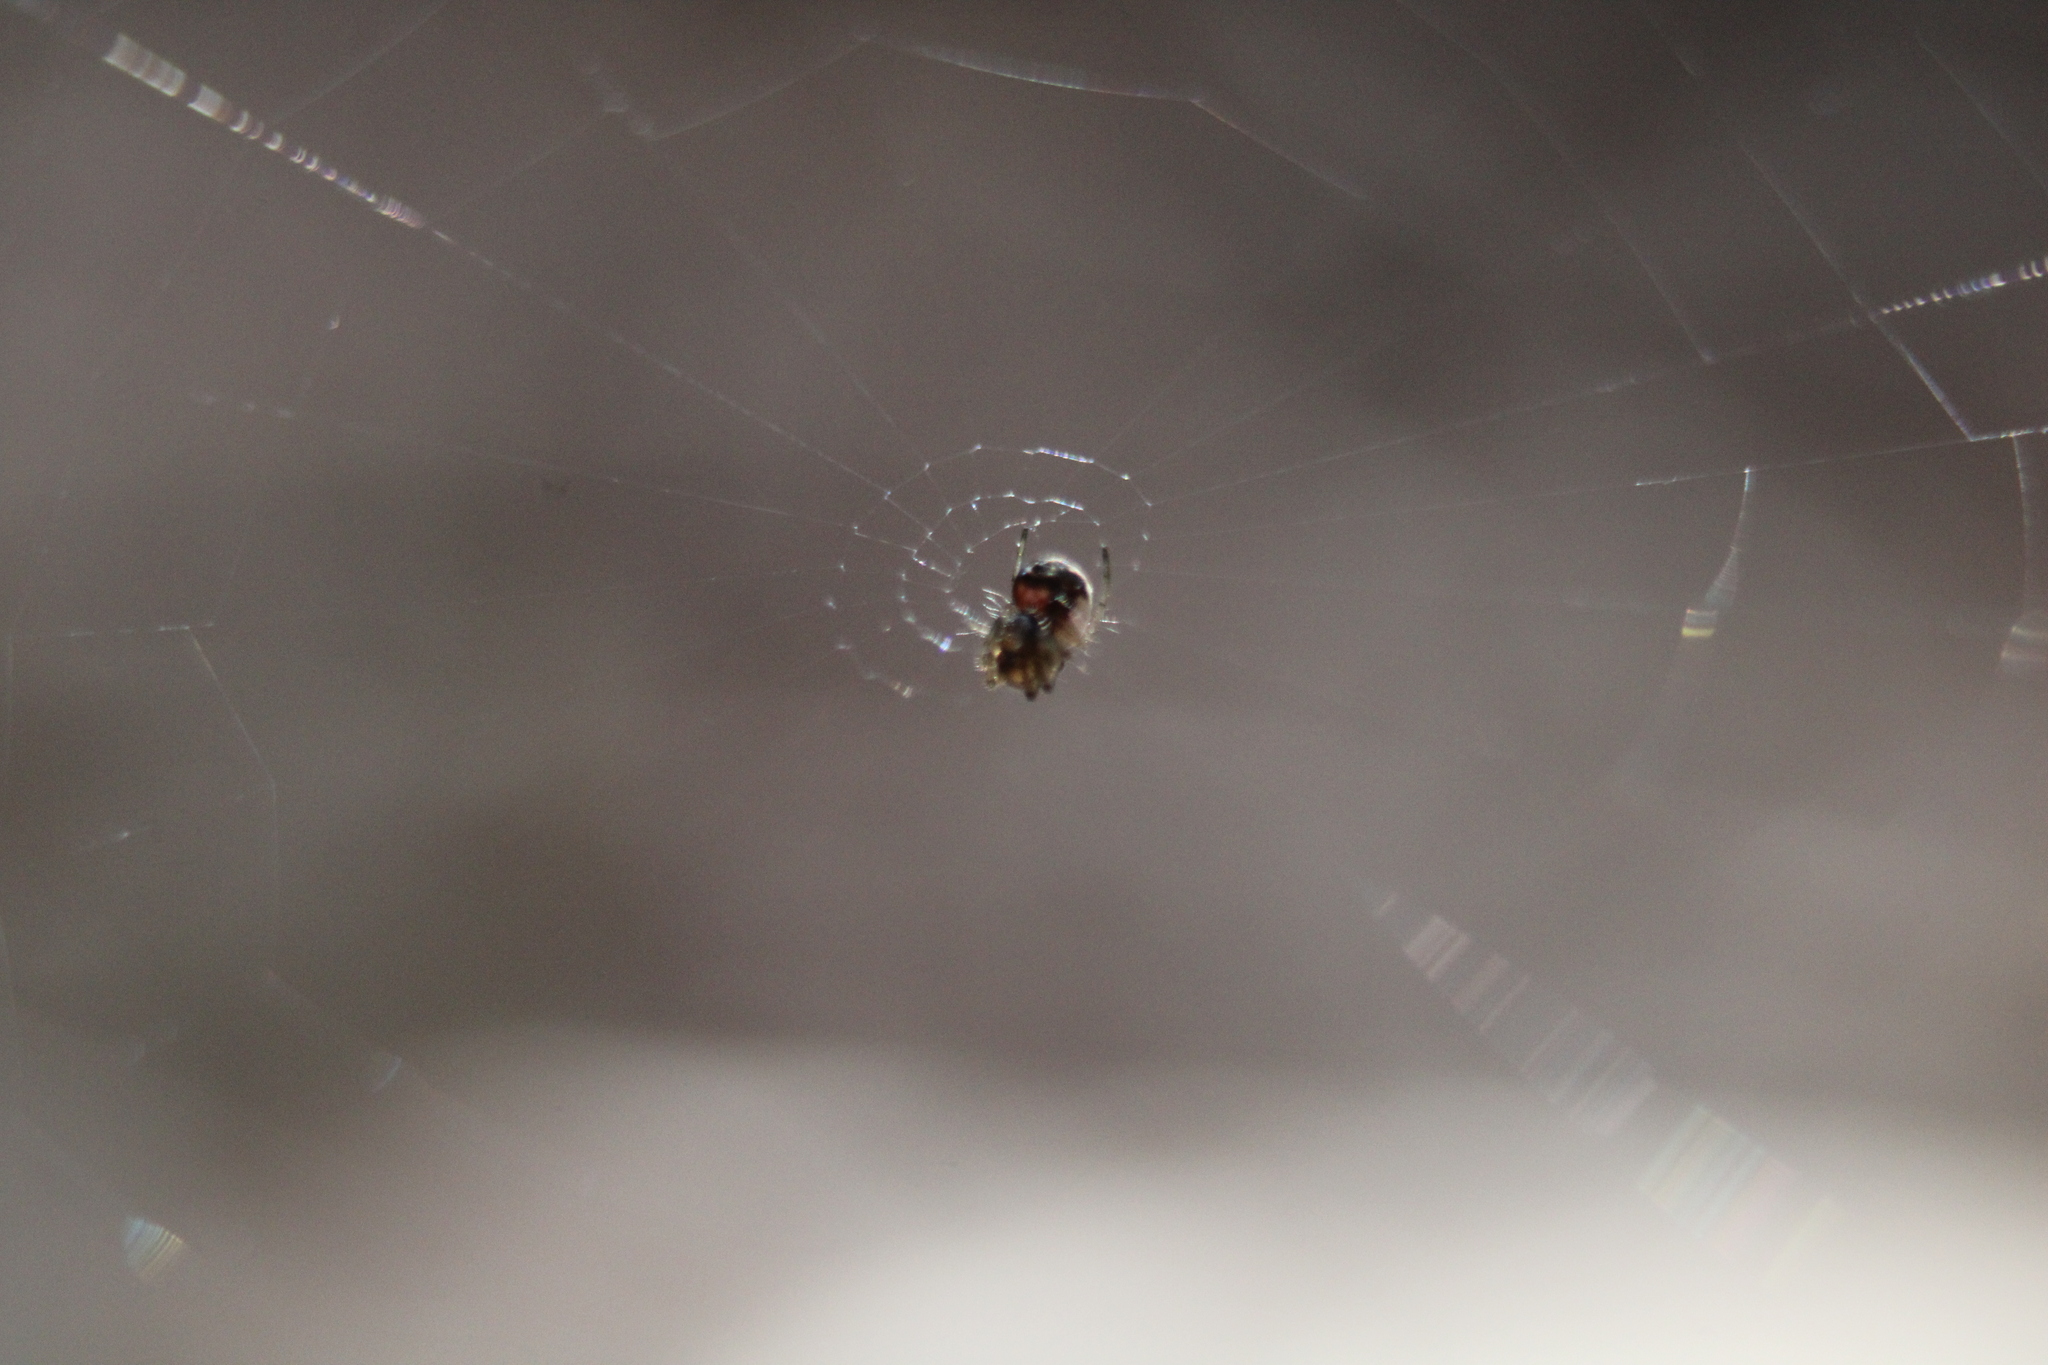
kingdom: Animalia
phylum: Arthropoda
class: Arachnida
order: Araneae
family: Tetragnathidae
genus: Leucauge
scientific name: Leucauge venusta
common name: Longjawed orb weavers
